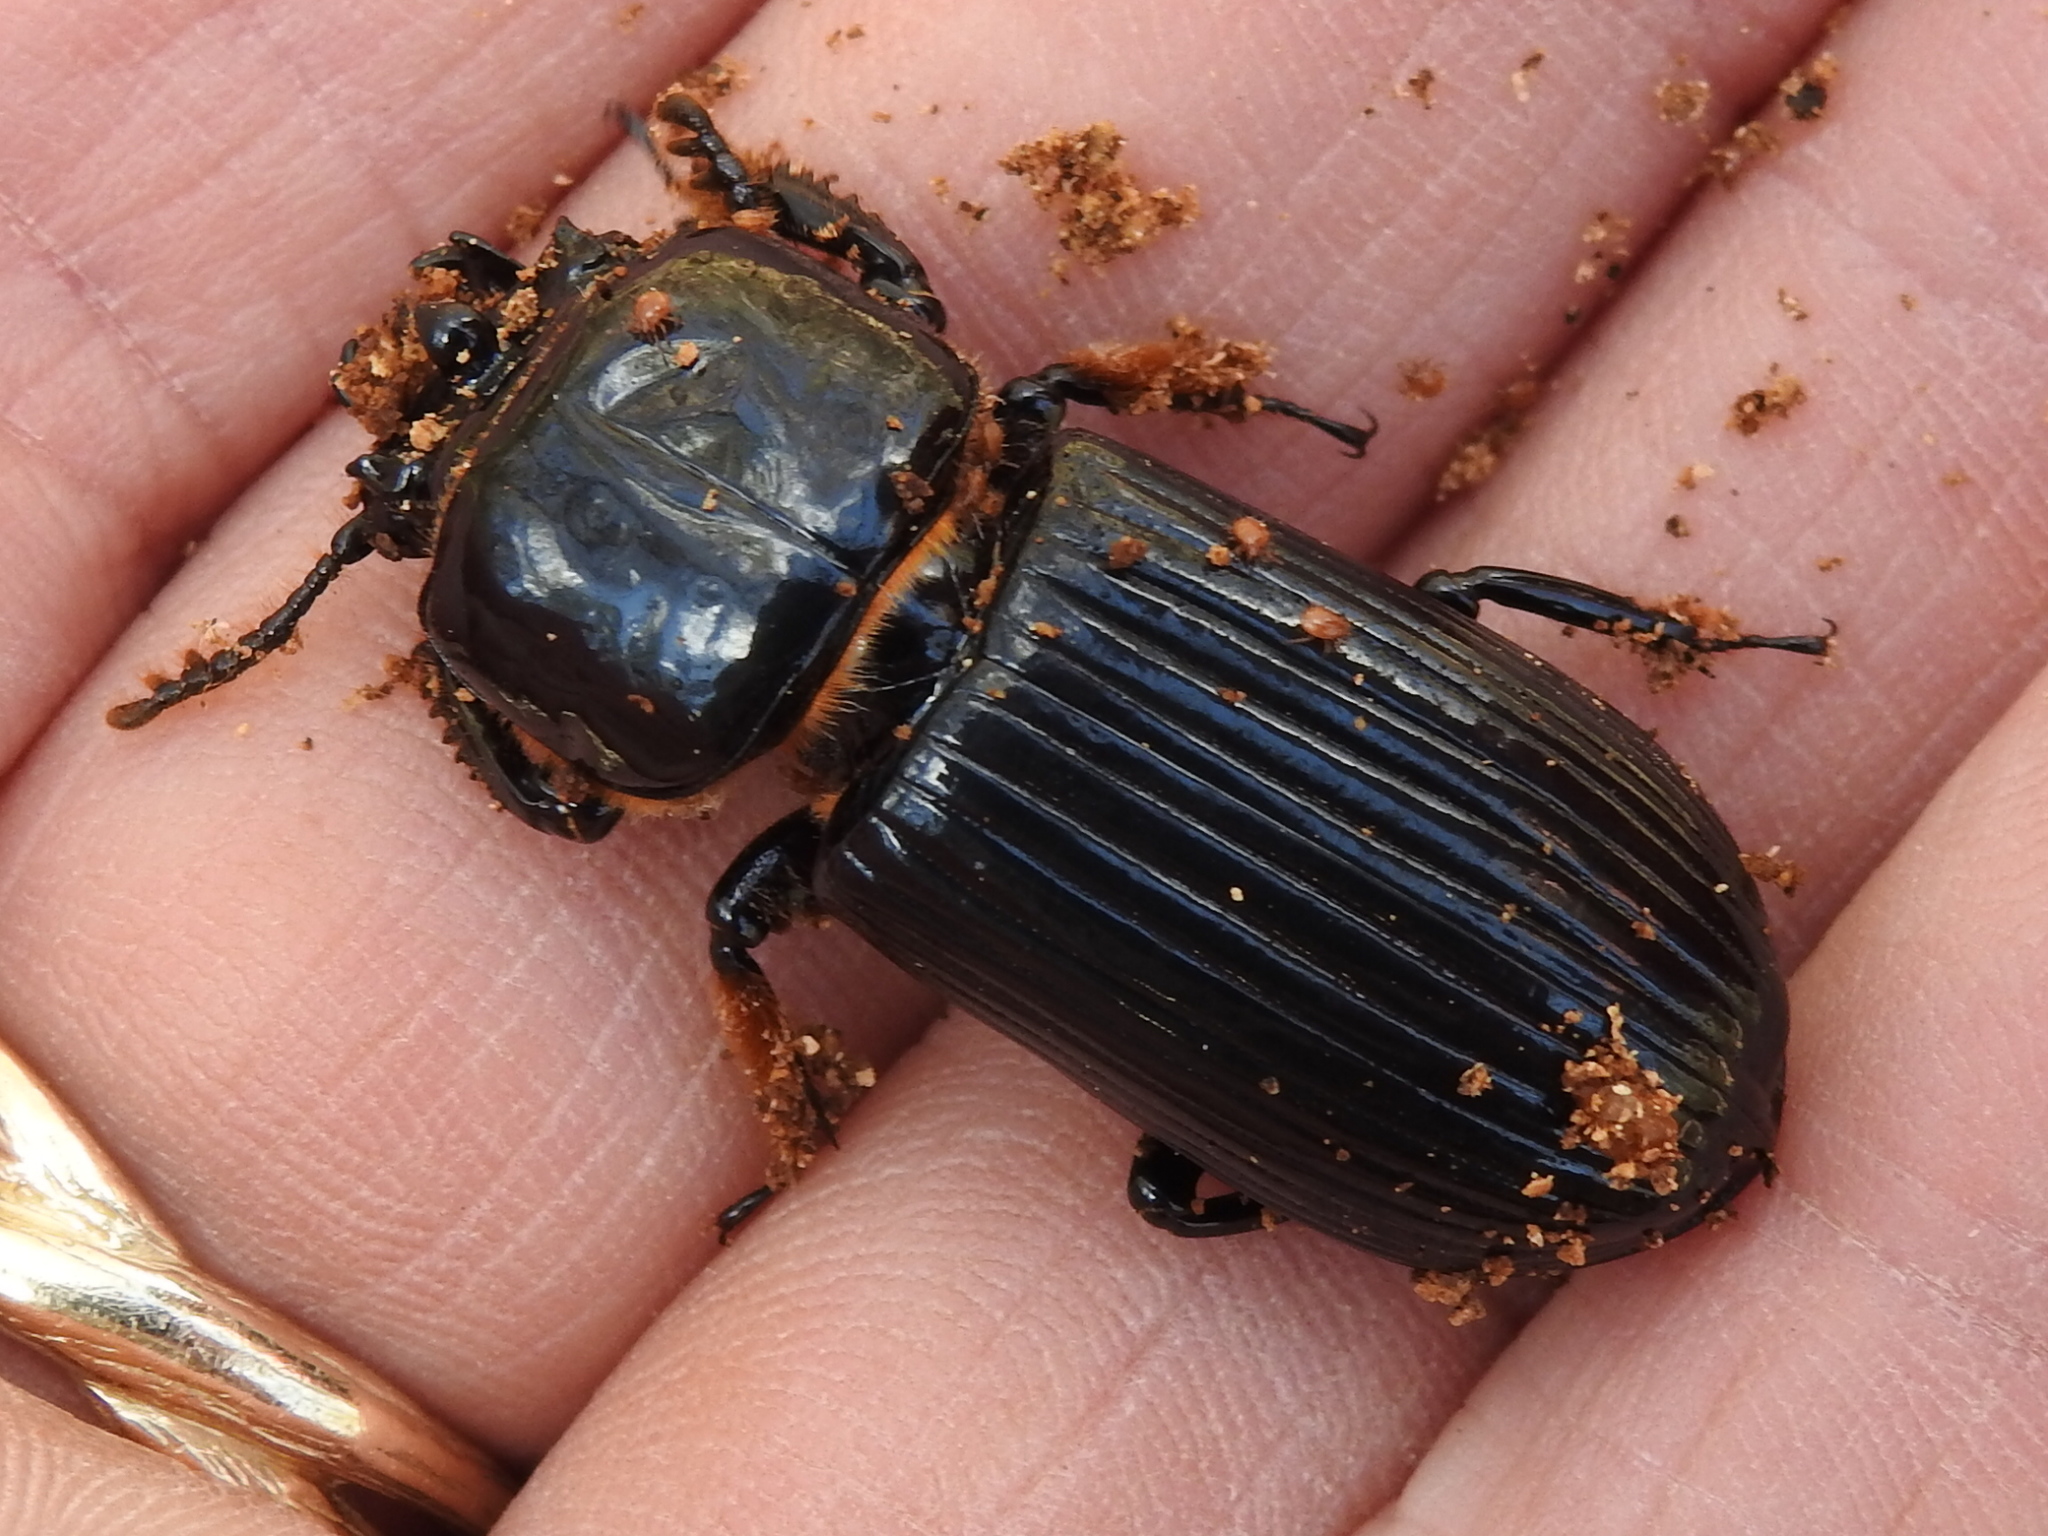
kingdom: Animalia
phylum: Arthropoda
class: Insecta
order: Coleoptera
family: Passalidae
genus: Odontotaenius
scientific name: Odontotaenius disjunctus
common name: Patent leather beetle
